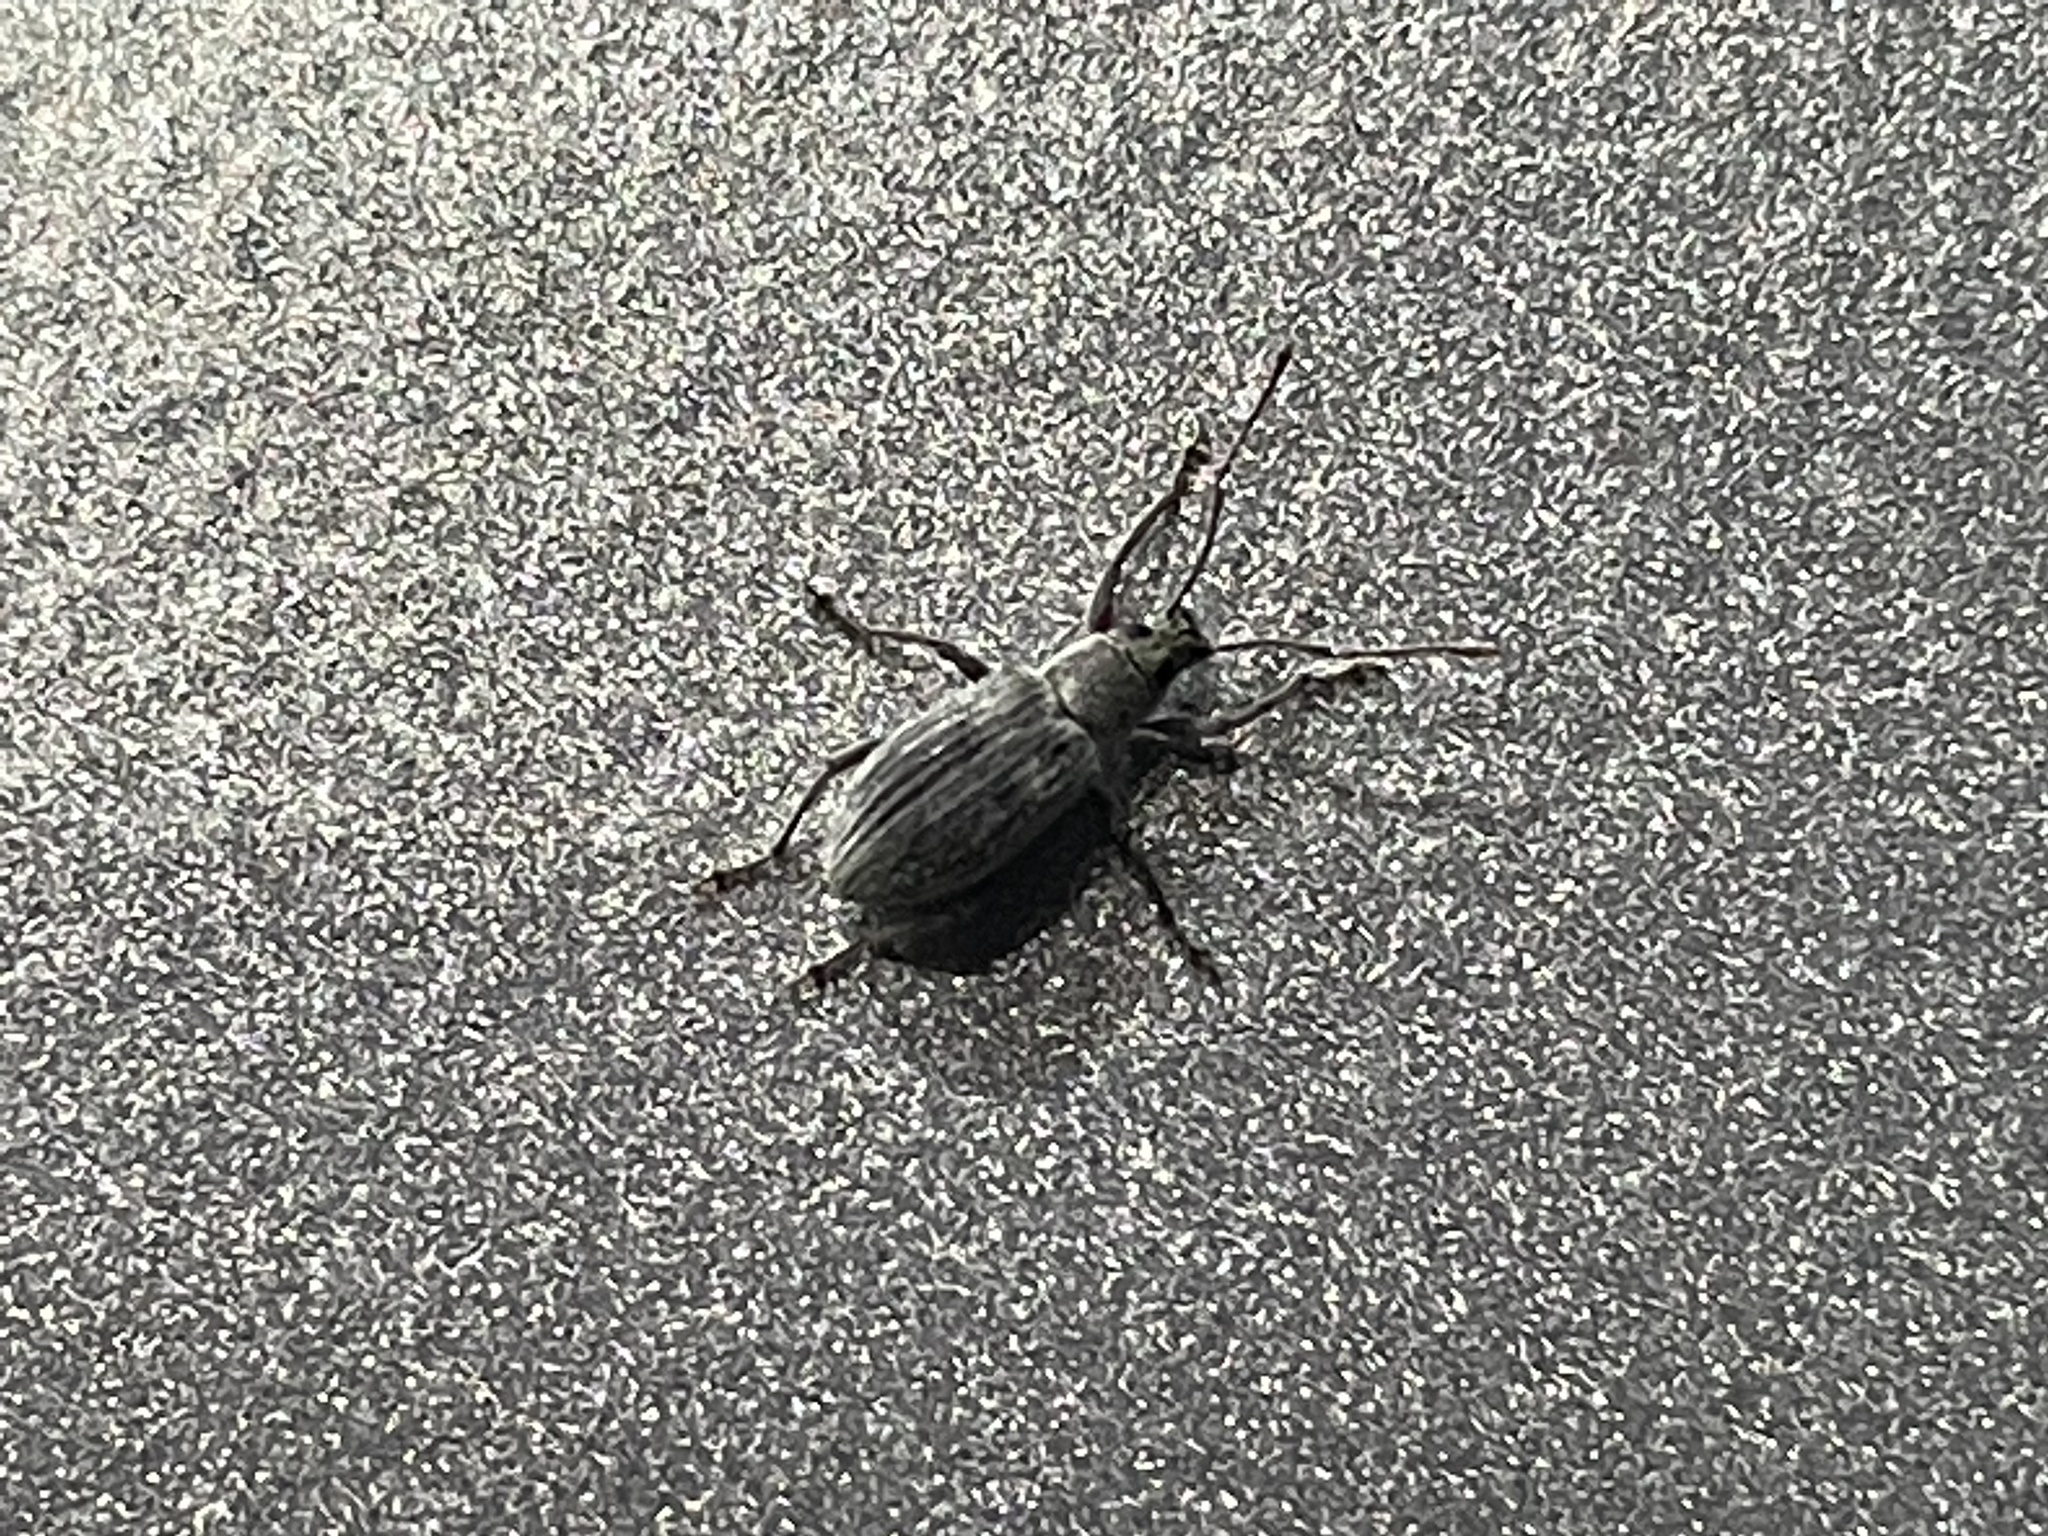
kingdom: Animalia
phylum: Arthropoda
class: Insecta
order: Coleoptera
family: Curculionidae
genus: Cyrtepistomus
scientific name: Cyrtepistomus castaneus
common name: Weevil
